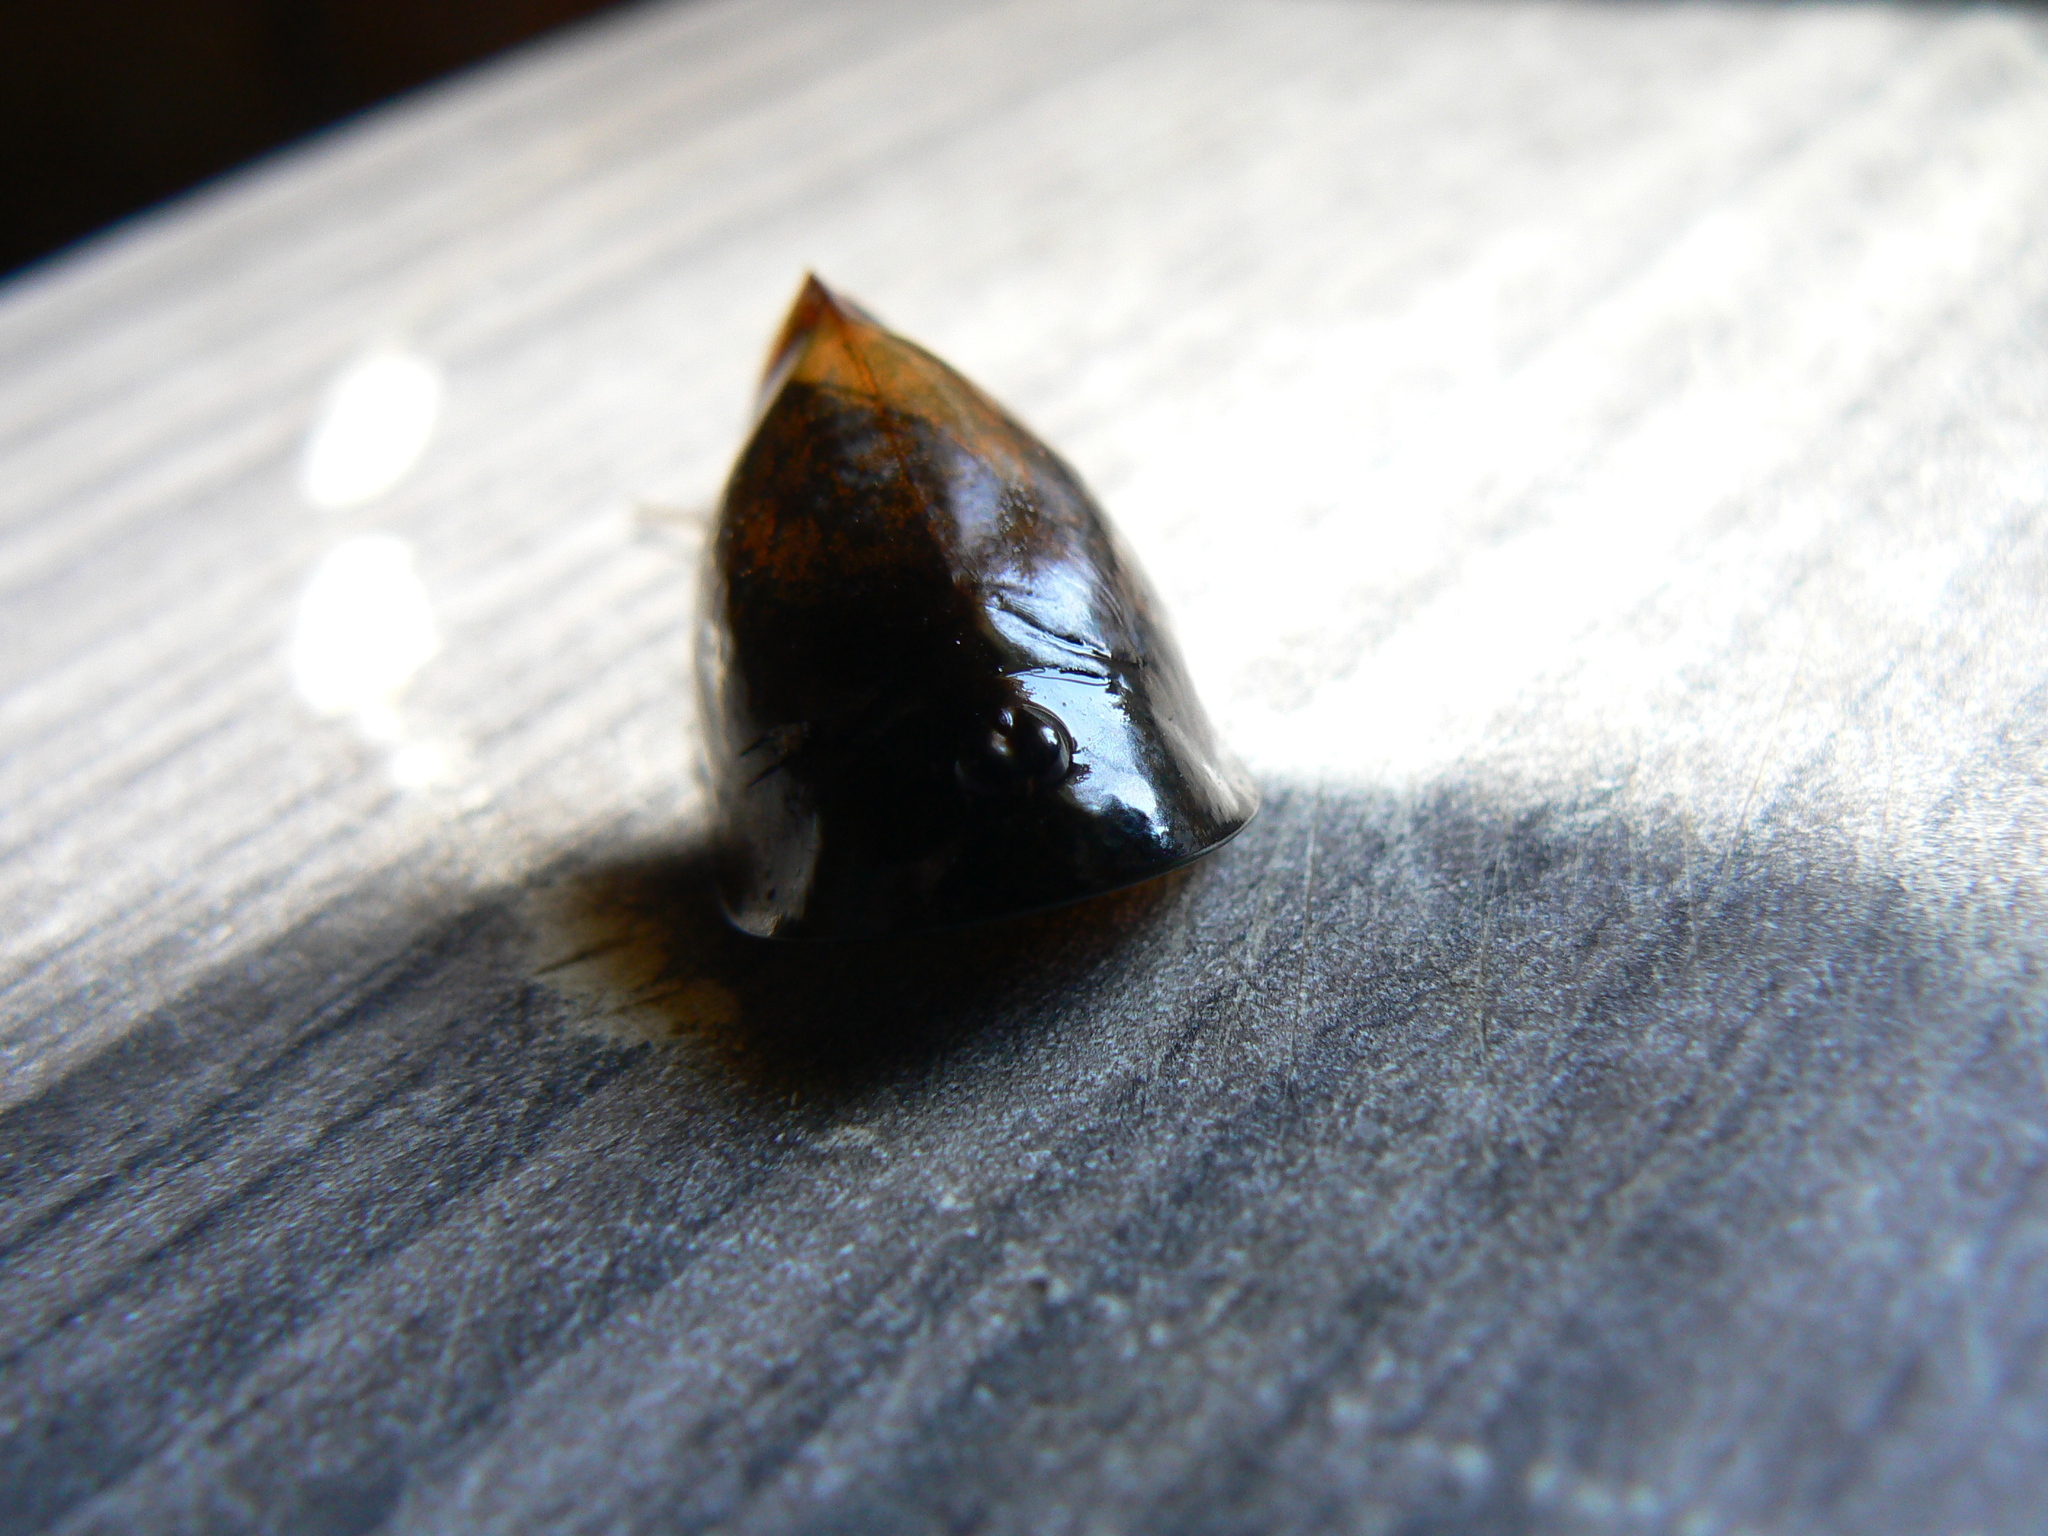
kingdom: Animalia
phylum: Arthropoda
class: Branchiopoda
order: Notostraca
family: Triopsidae
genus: Triops
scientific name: Triops cancriformis
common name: Tadpole shrimp
